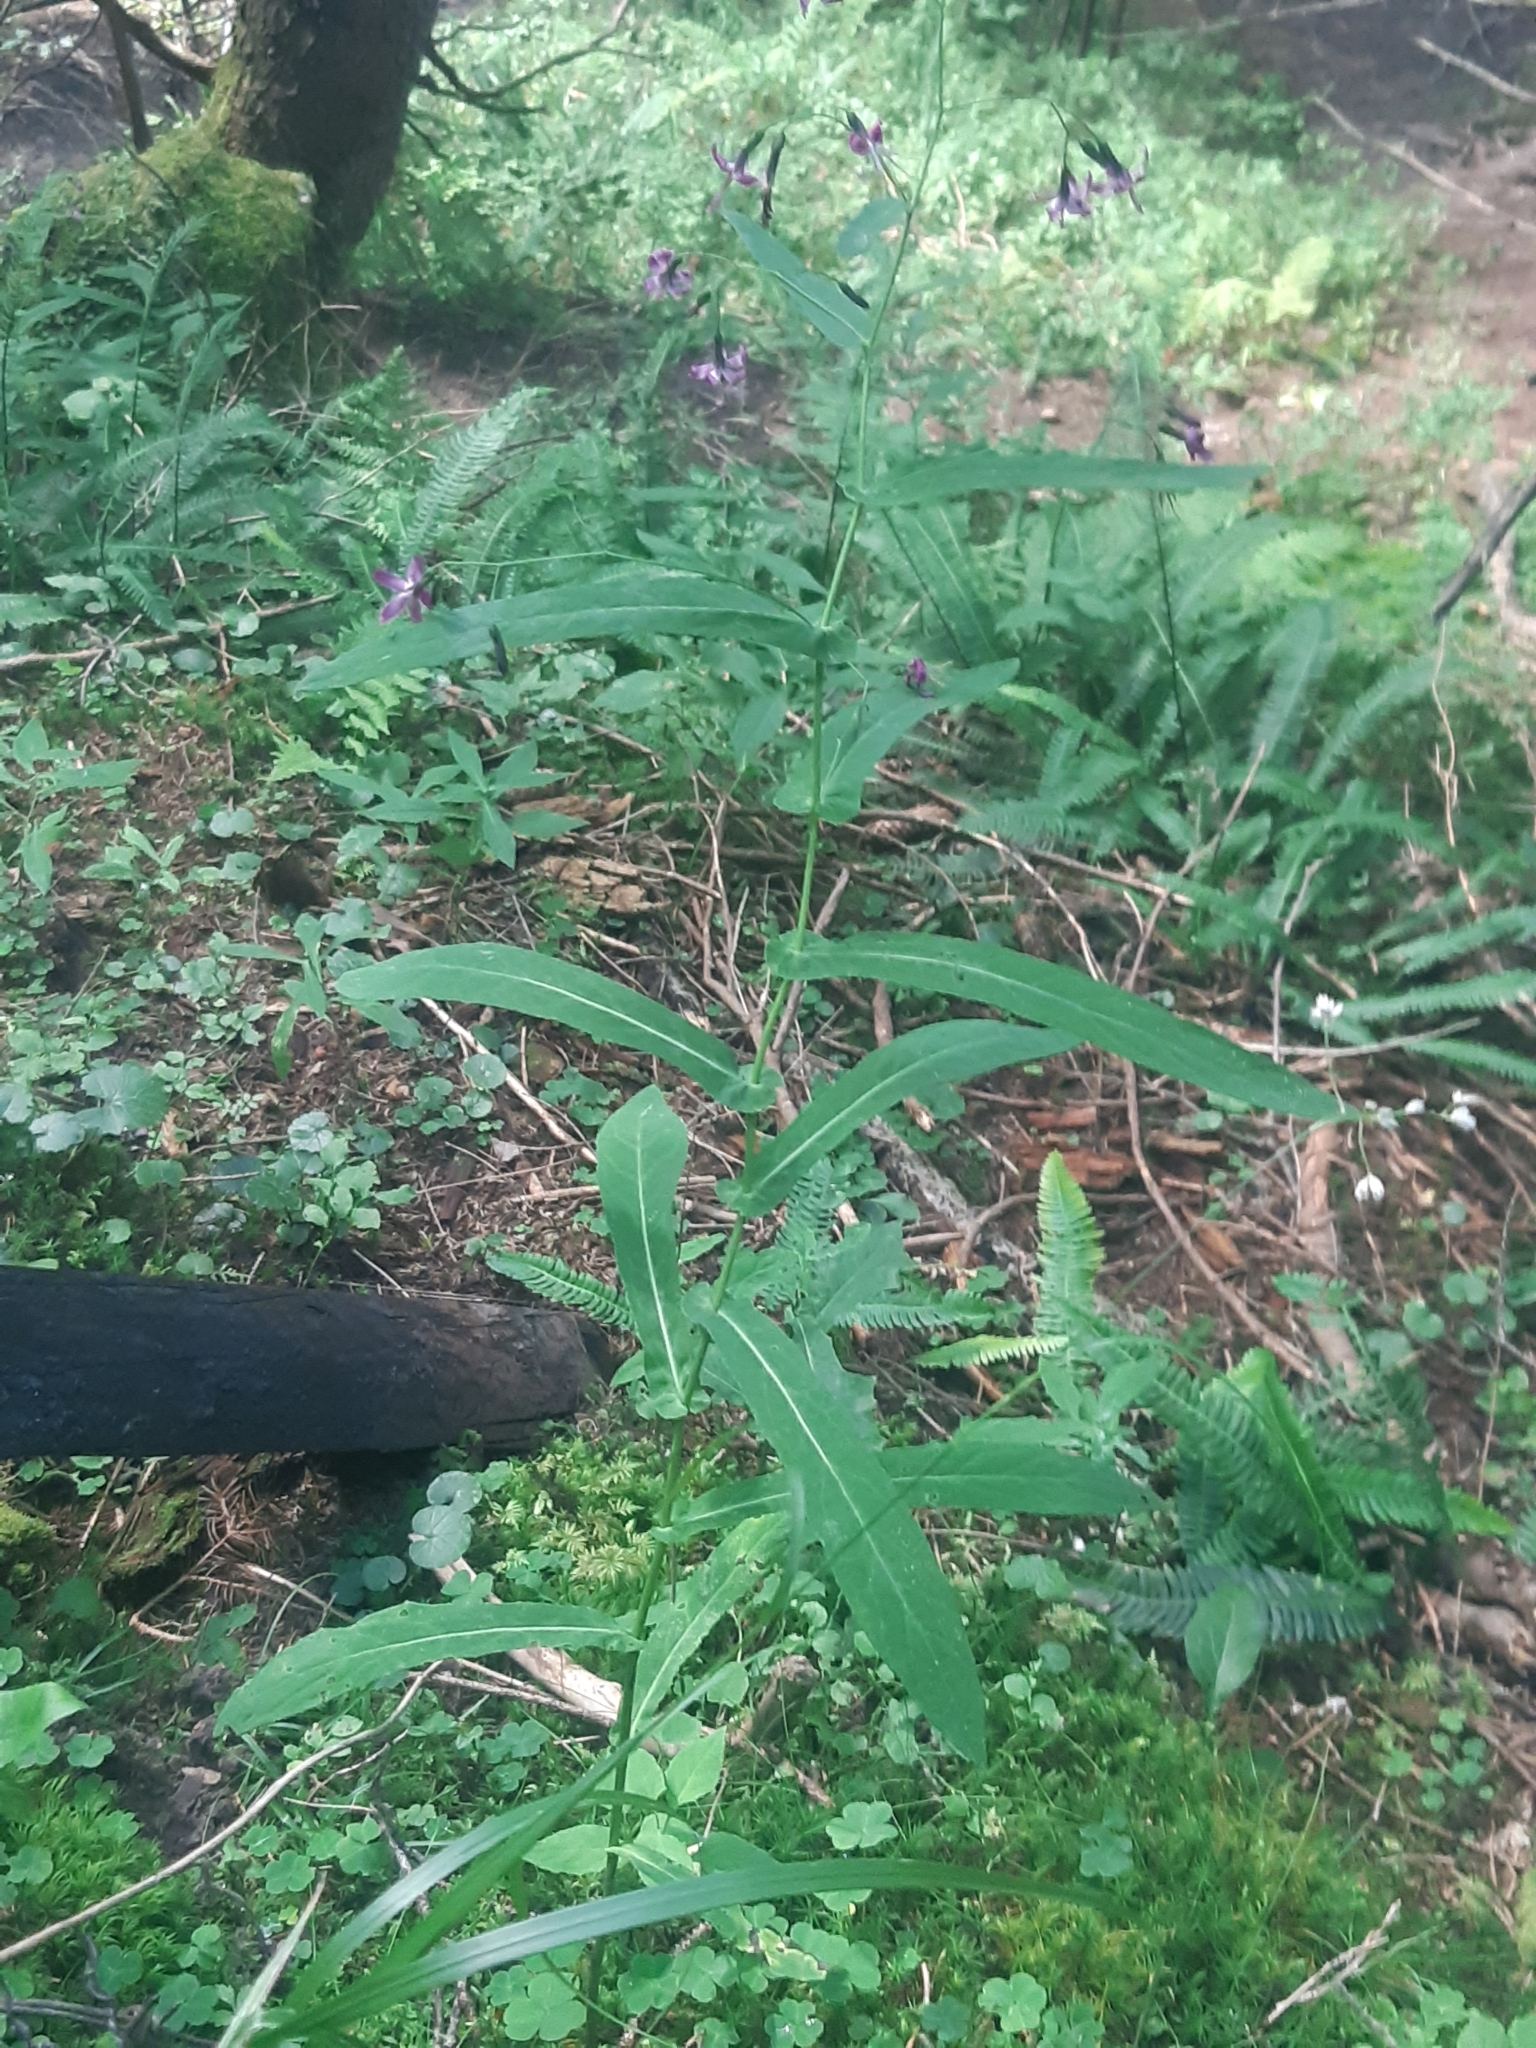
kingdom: Plantae
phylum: Tracheophyta
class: Magnoliopsida
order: Asterales
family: Asteraceae
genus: Prenanthes
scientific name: Prenanthes purpurea
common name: Purple lettuce
